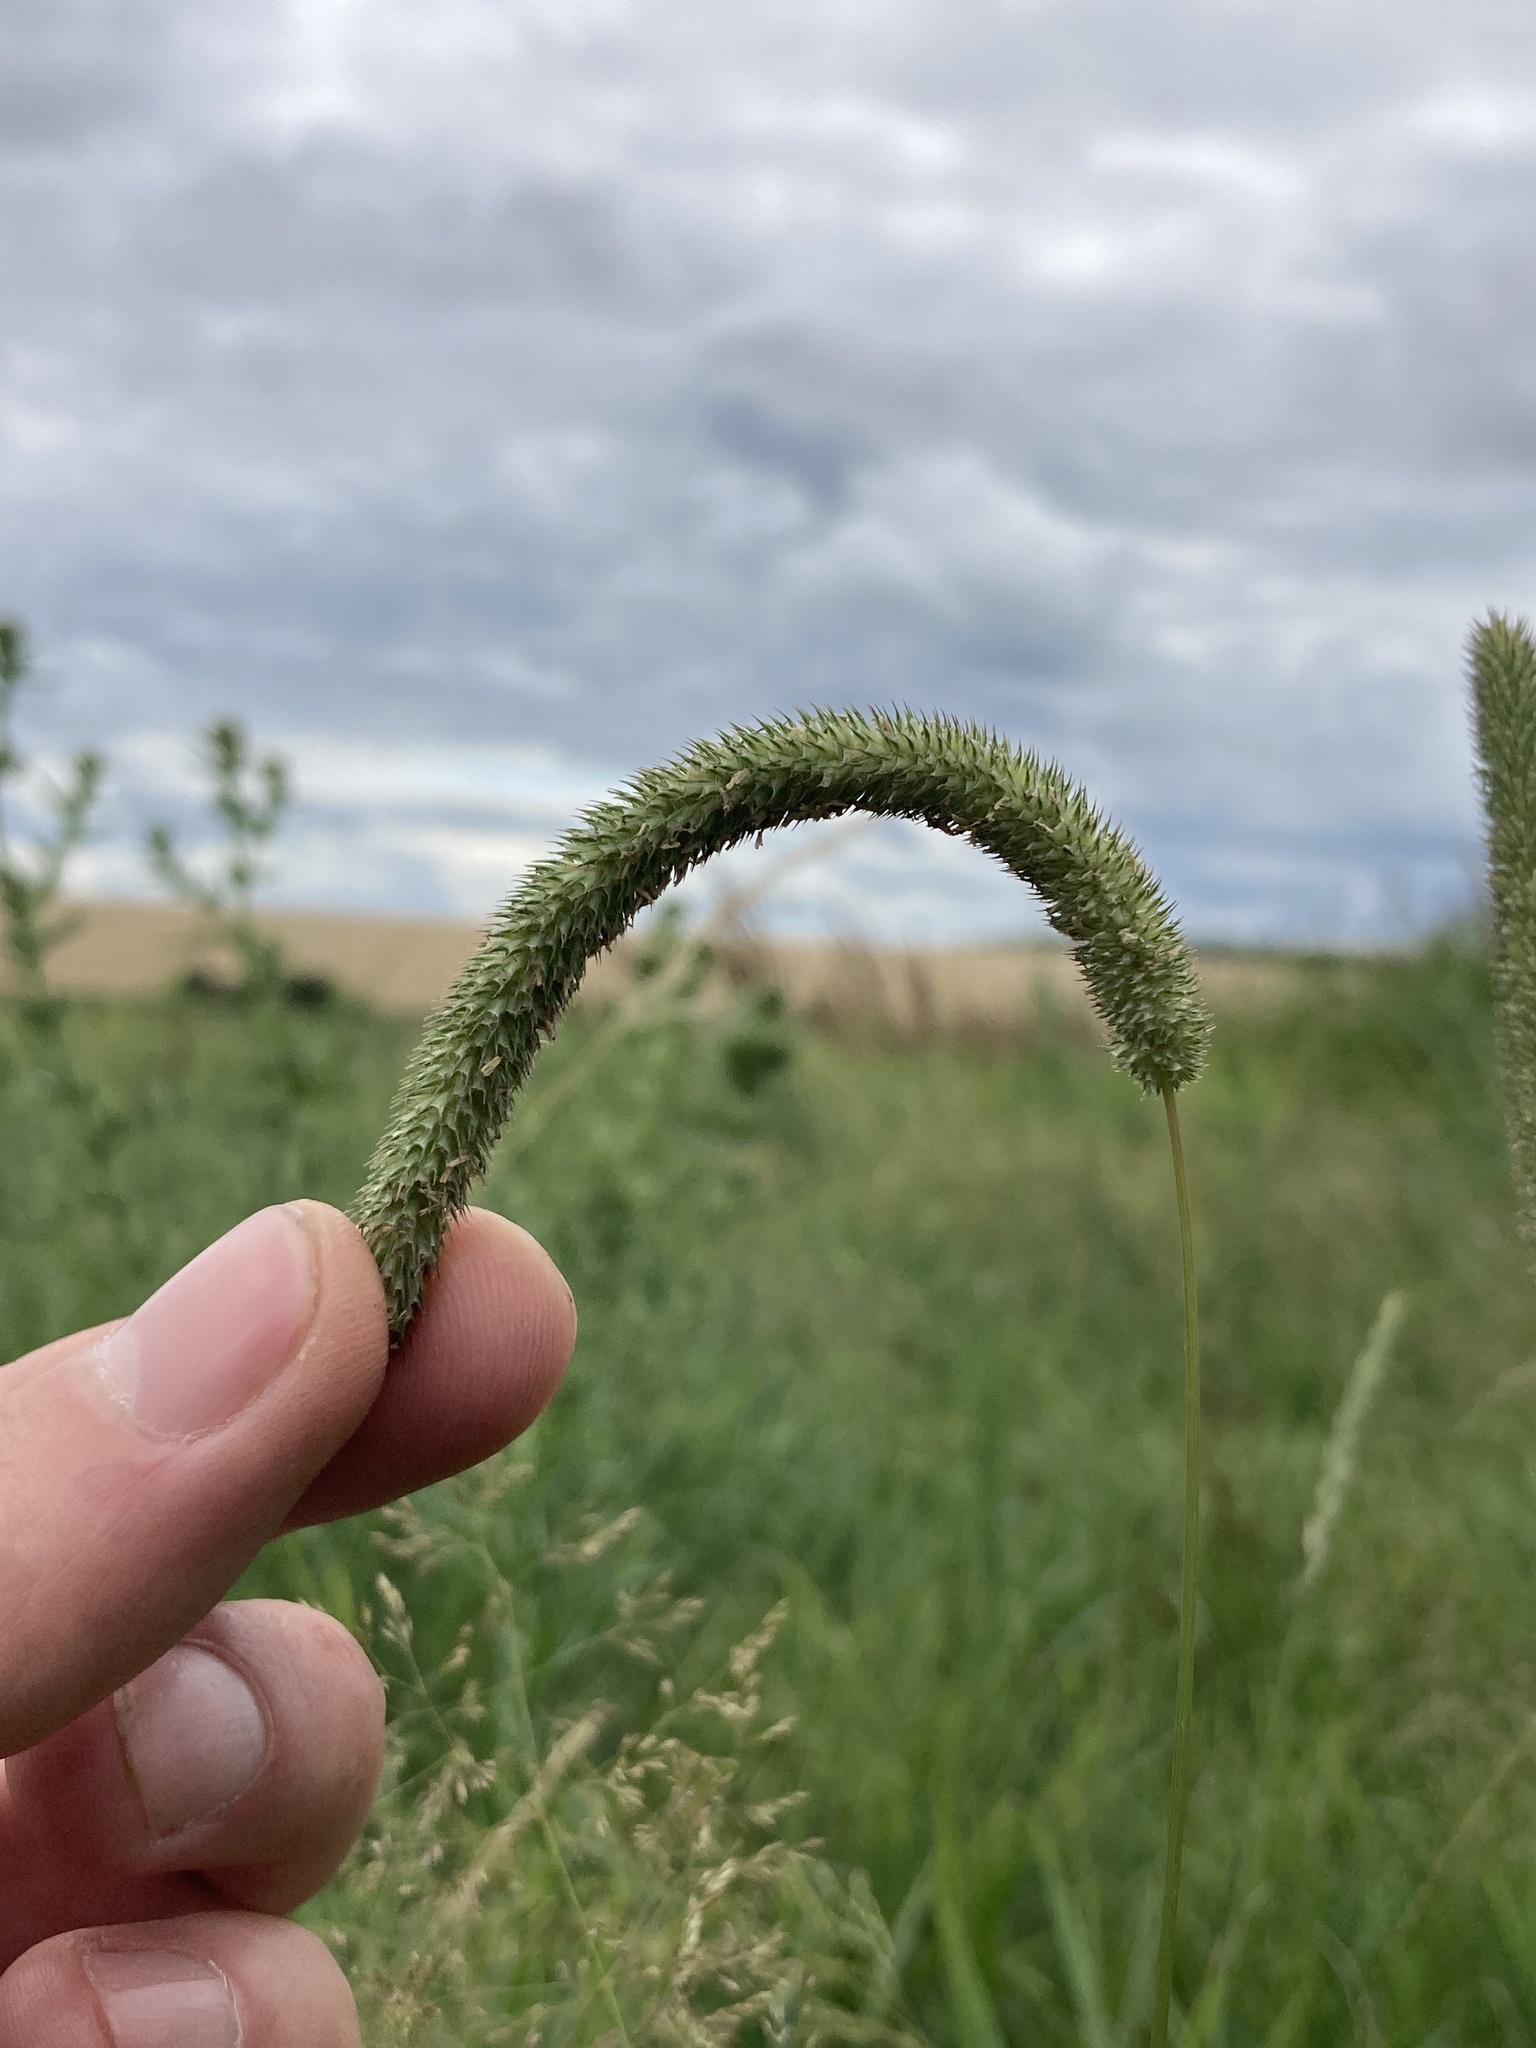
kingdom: Plantae
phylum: Tracheophyta
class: Liliopsida
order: Poales
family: Poaceae
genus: Phleum
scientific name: Phleum pratense
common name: Timothy grass
